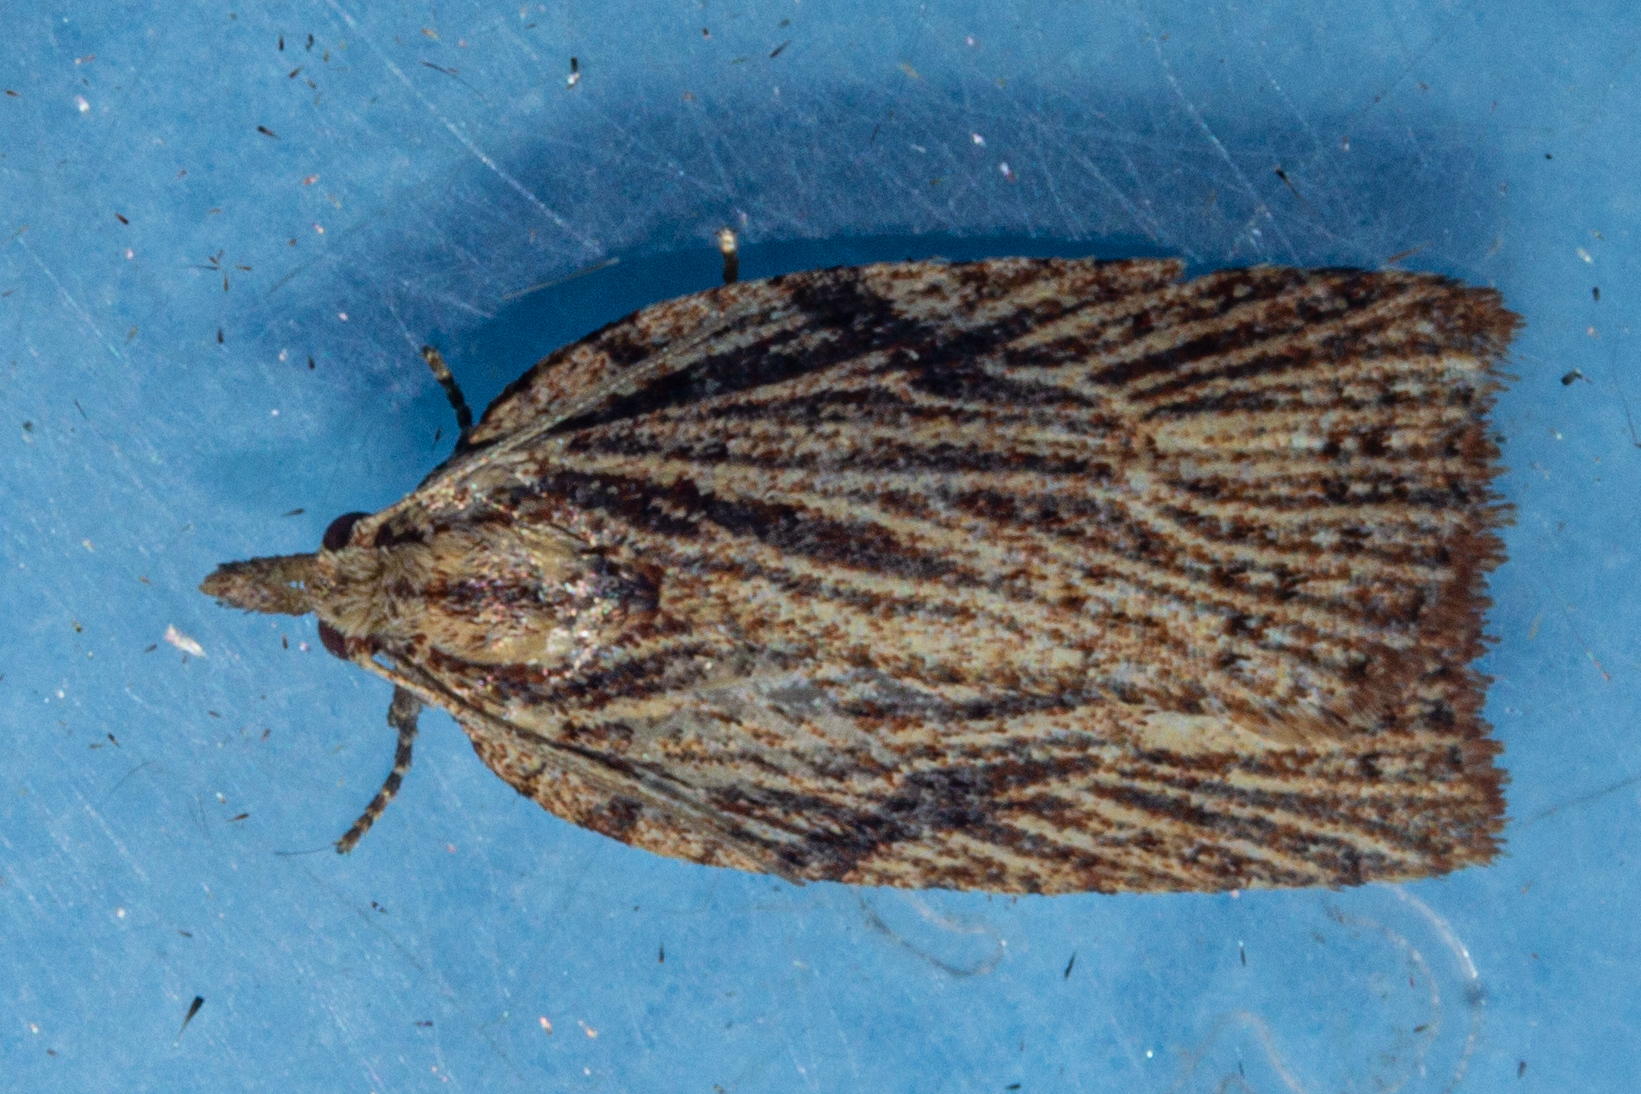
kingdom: Animalia
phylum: Arthropoda
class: Insecta
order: Lepidoptera
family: Tortricidae
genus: Planotortrix
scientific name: Planotortrix notophaea
